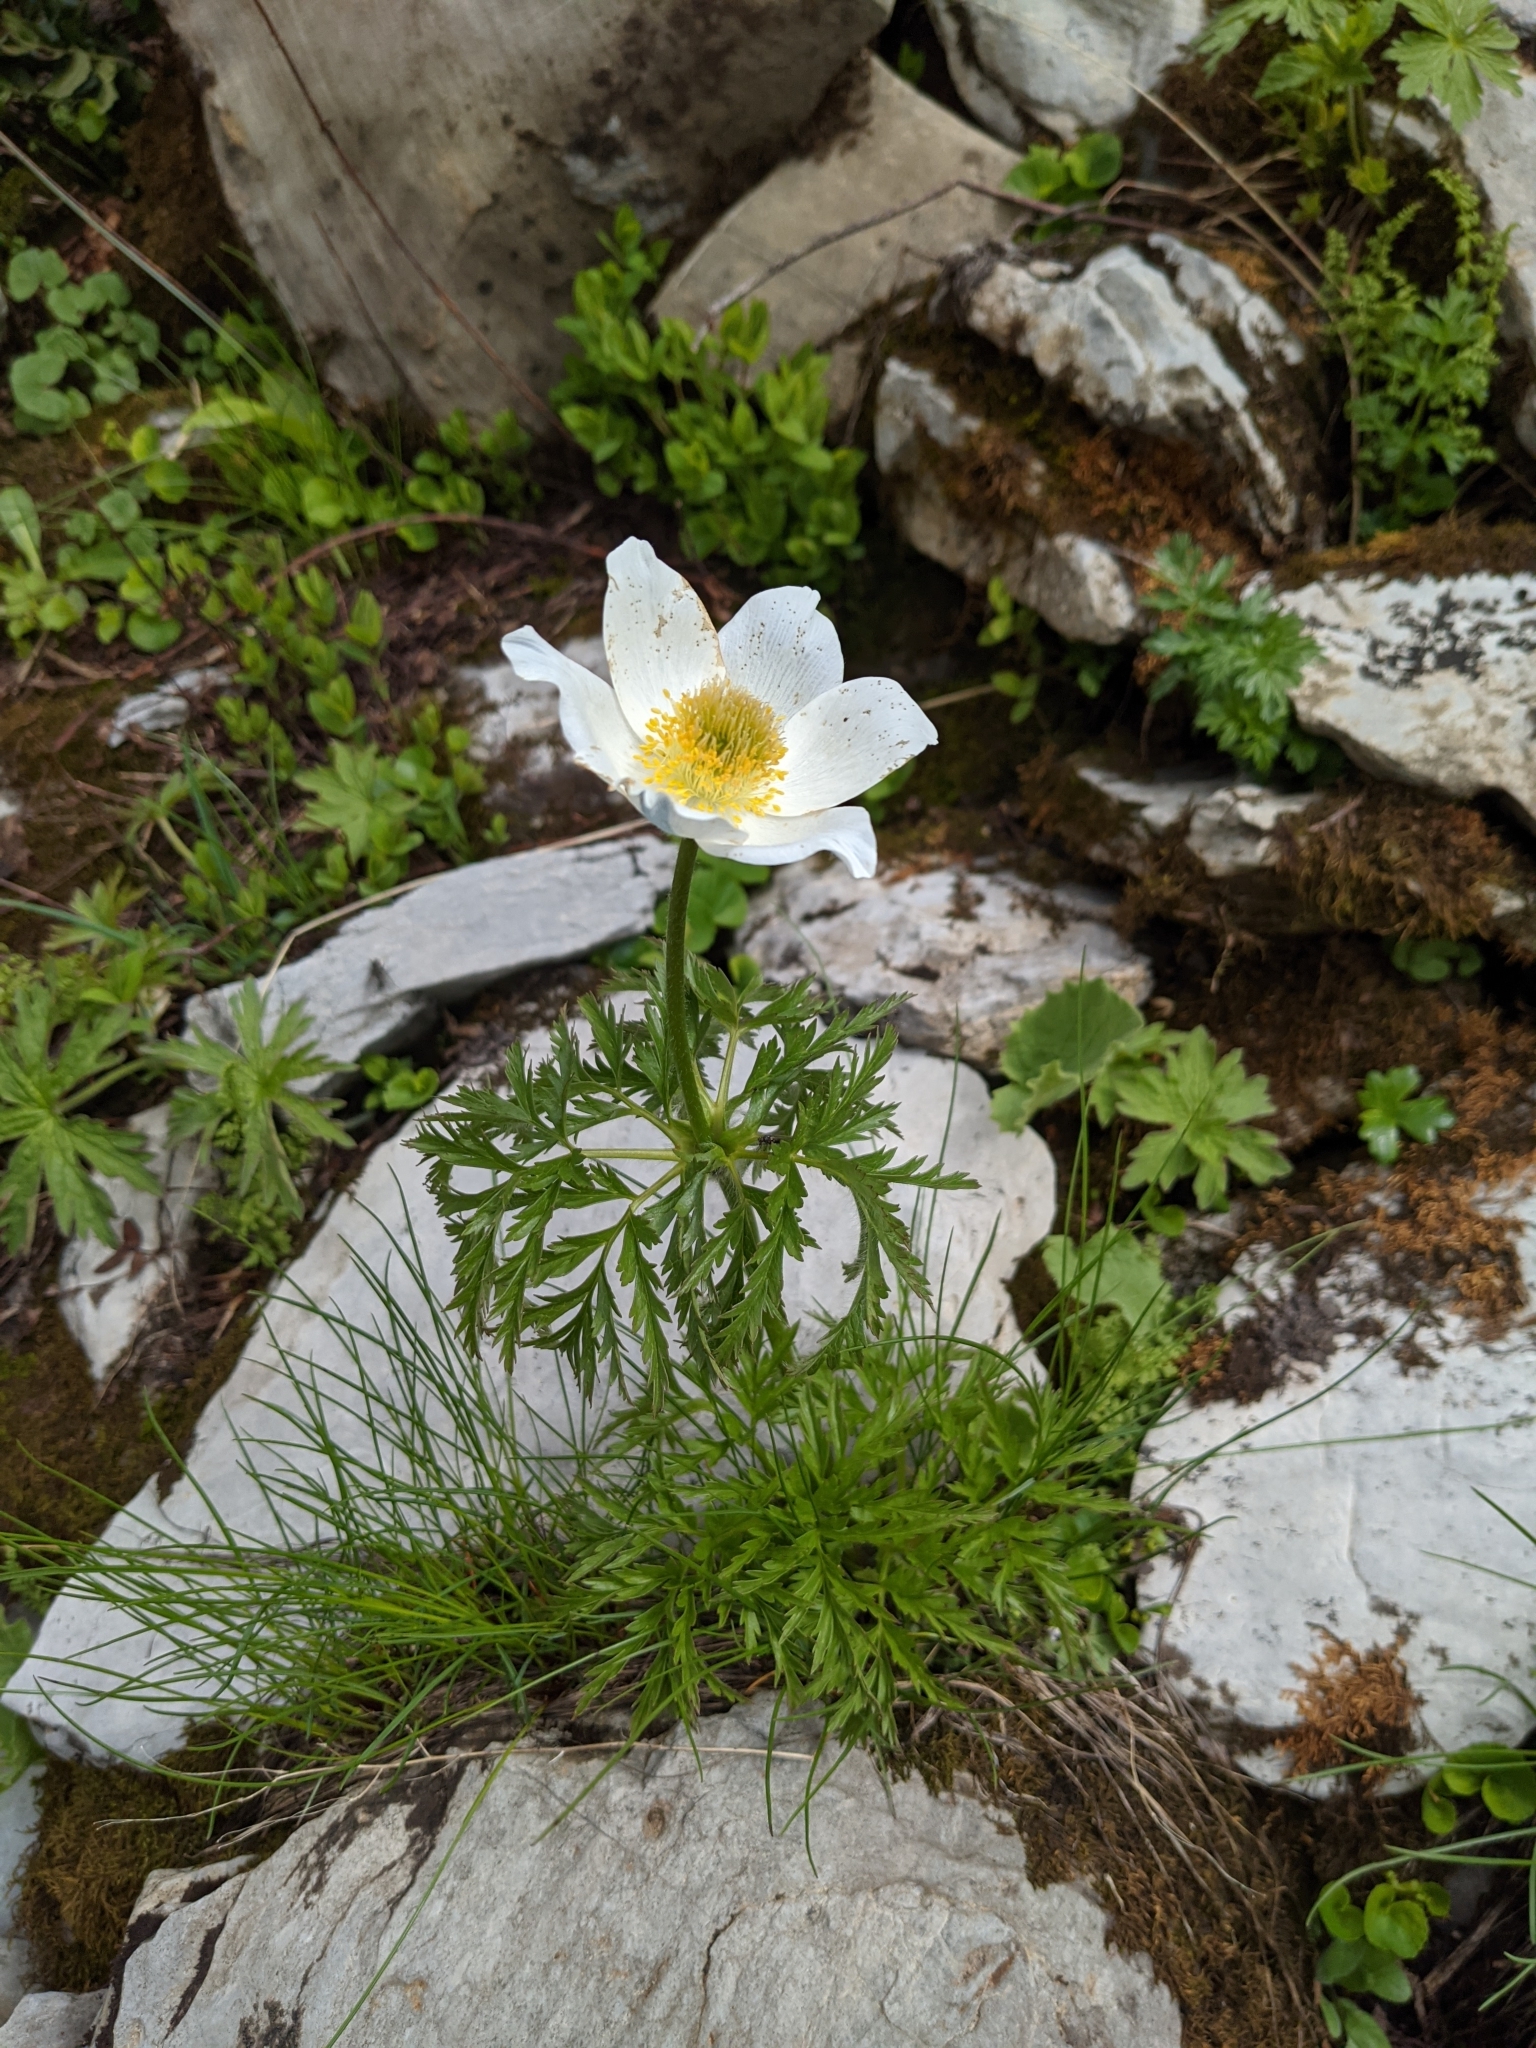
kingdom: Plantae
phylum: Tracheophyta
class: Magnoliopsida
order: Ranunculales
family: Ranunculaceae
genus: Pulsatilla
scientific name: Pulsatilla alpina
